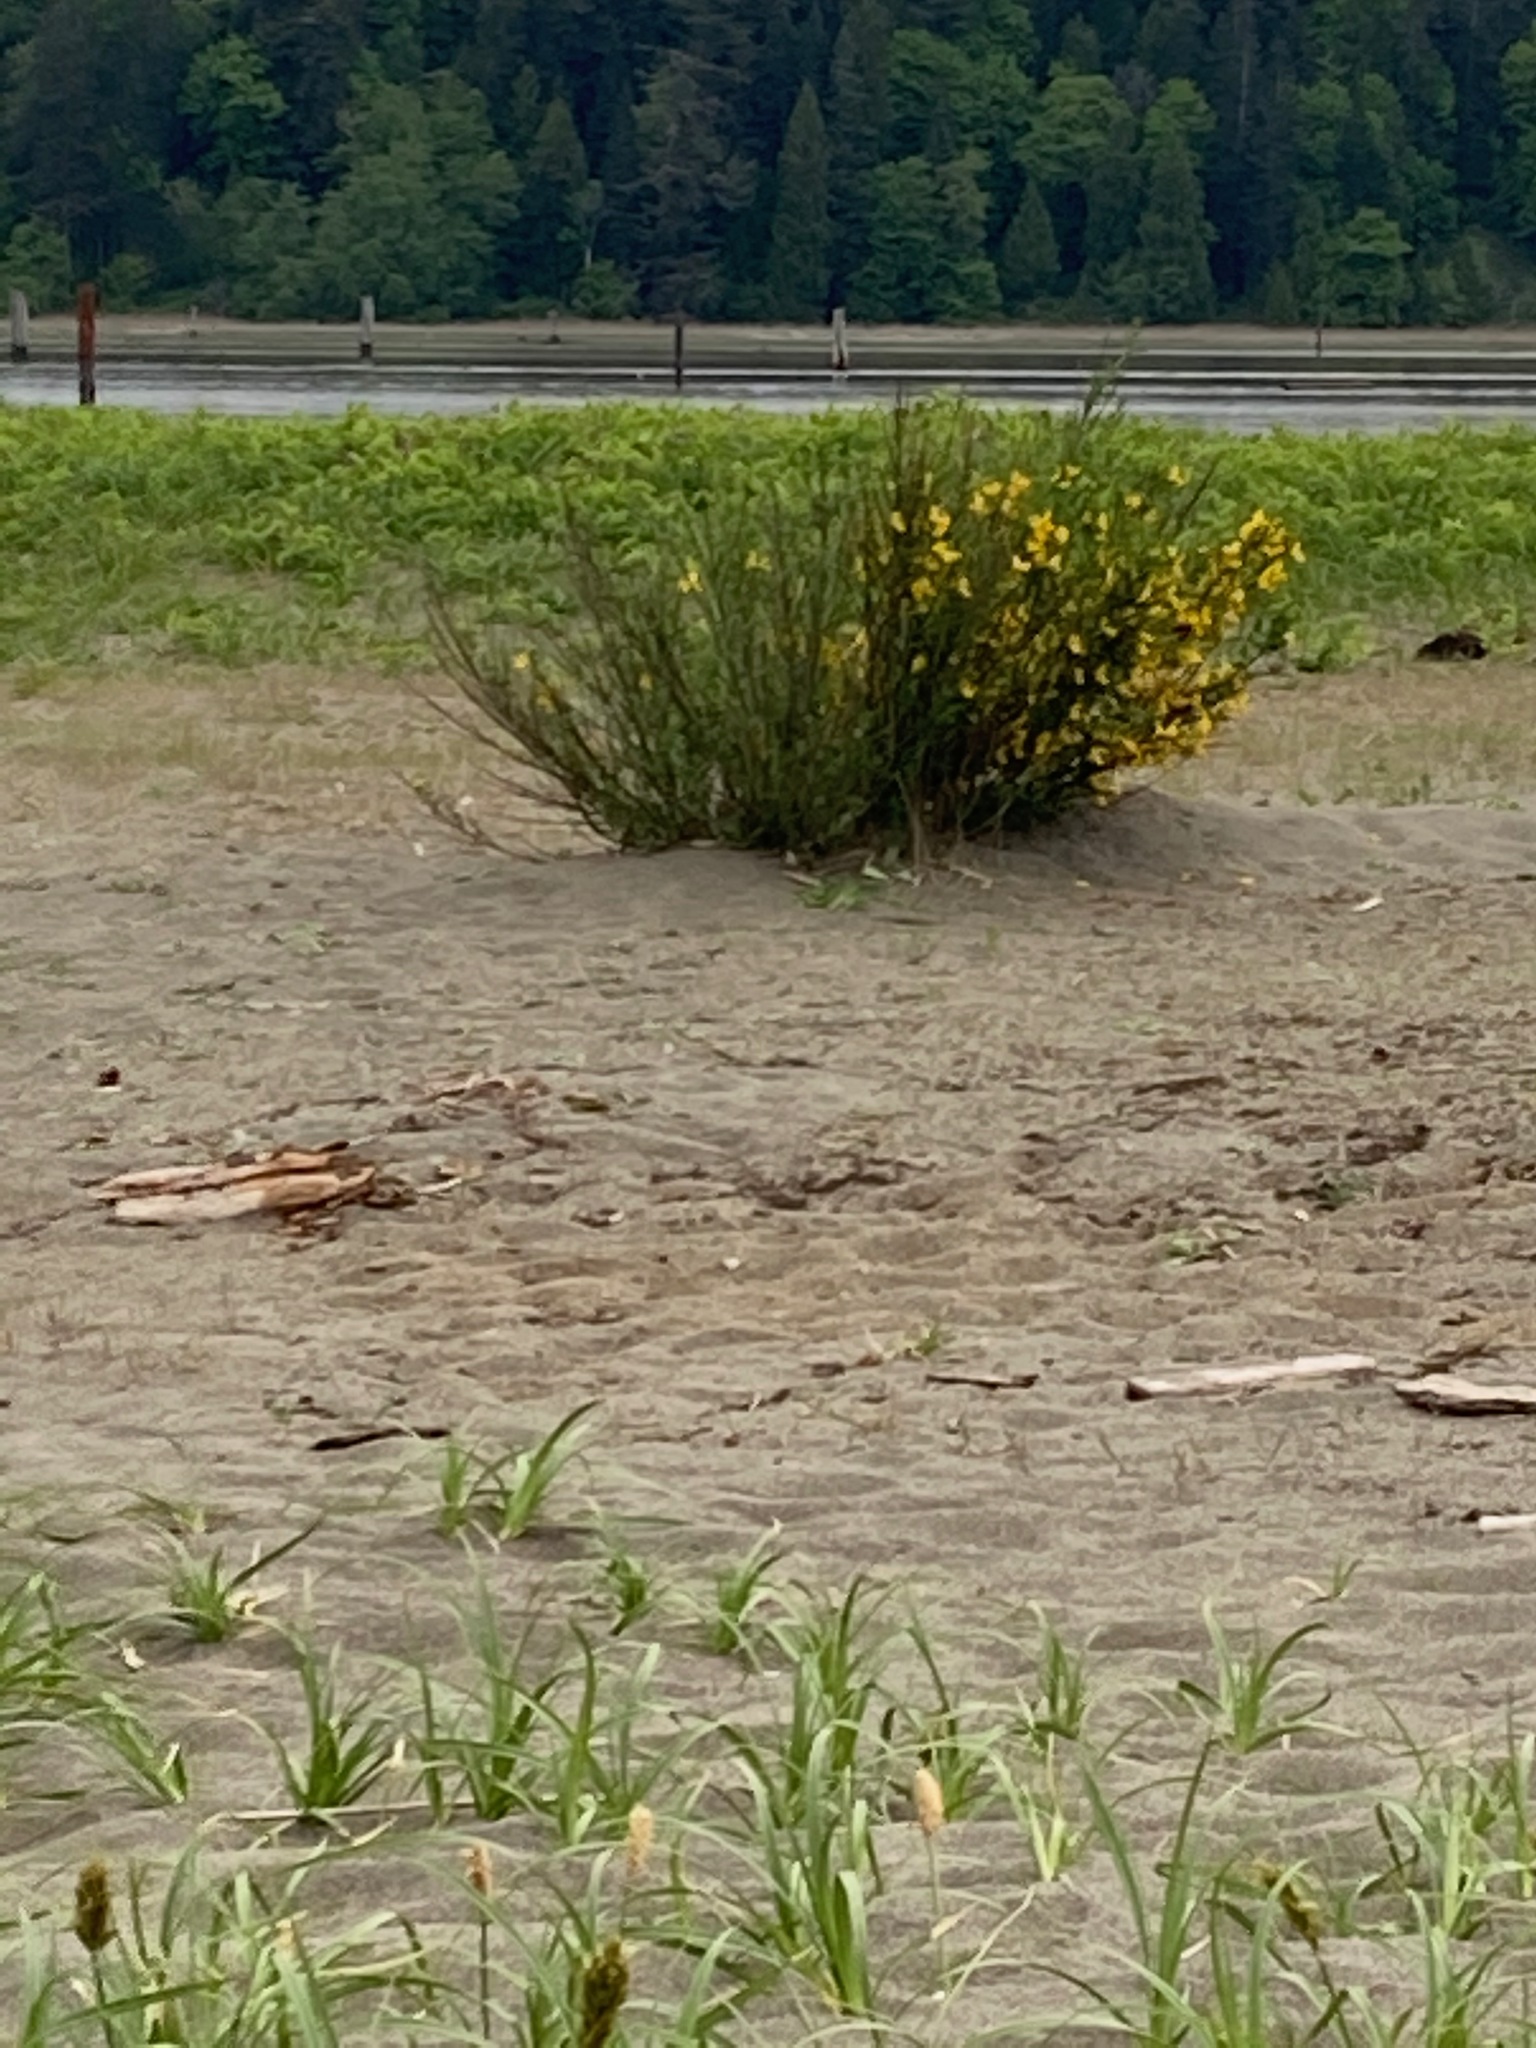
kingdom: Plantae
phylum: Tracheophyta
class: Magnoliopsida
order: Fabales
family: Fabaceae
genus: Cytisus
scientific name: Cytisus scoparius
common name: Scotch broom
